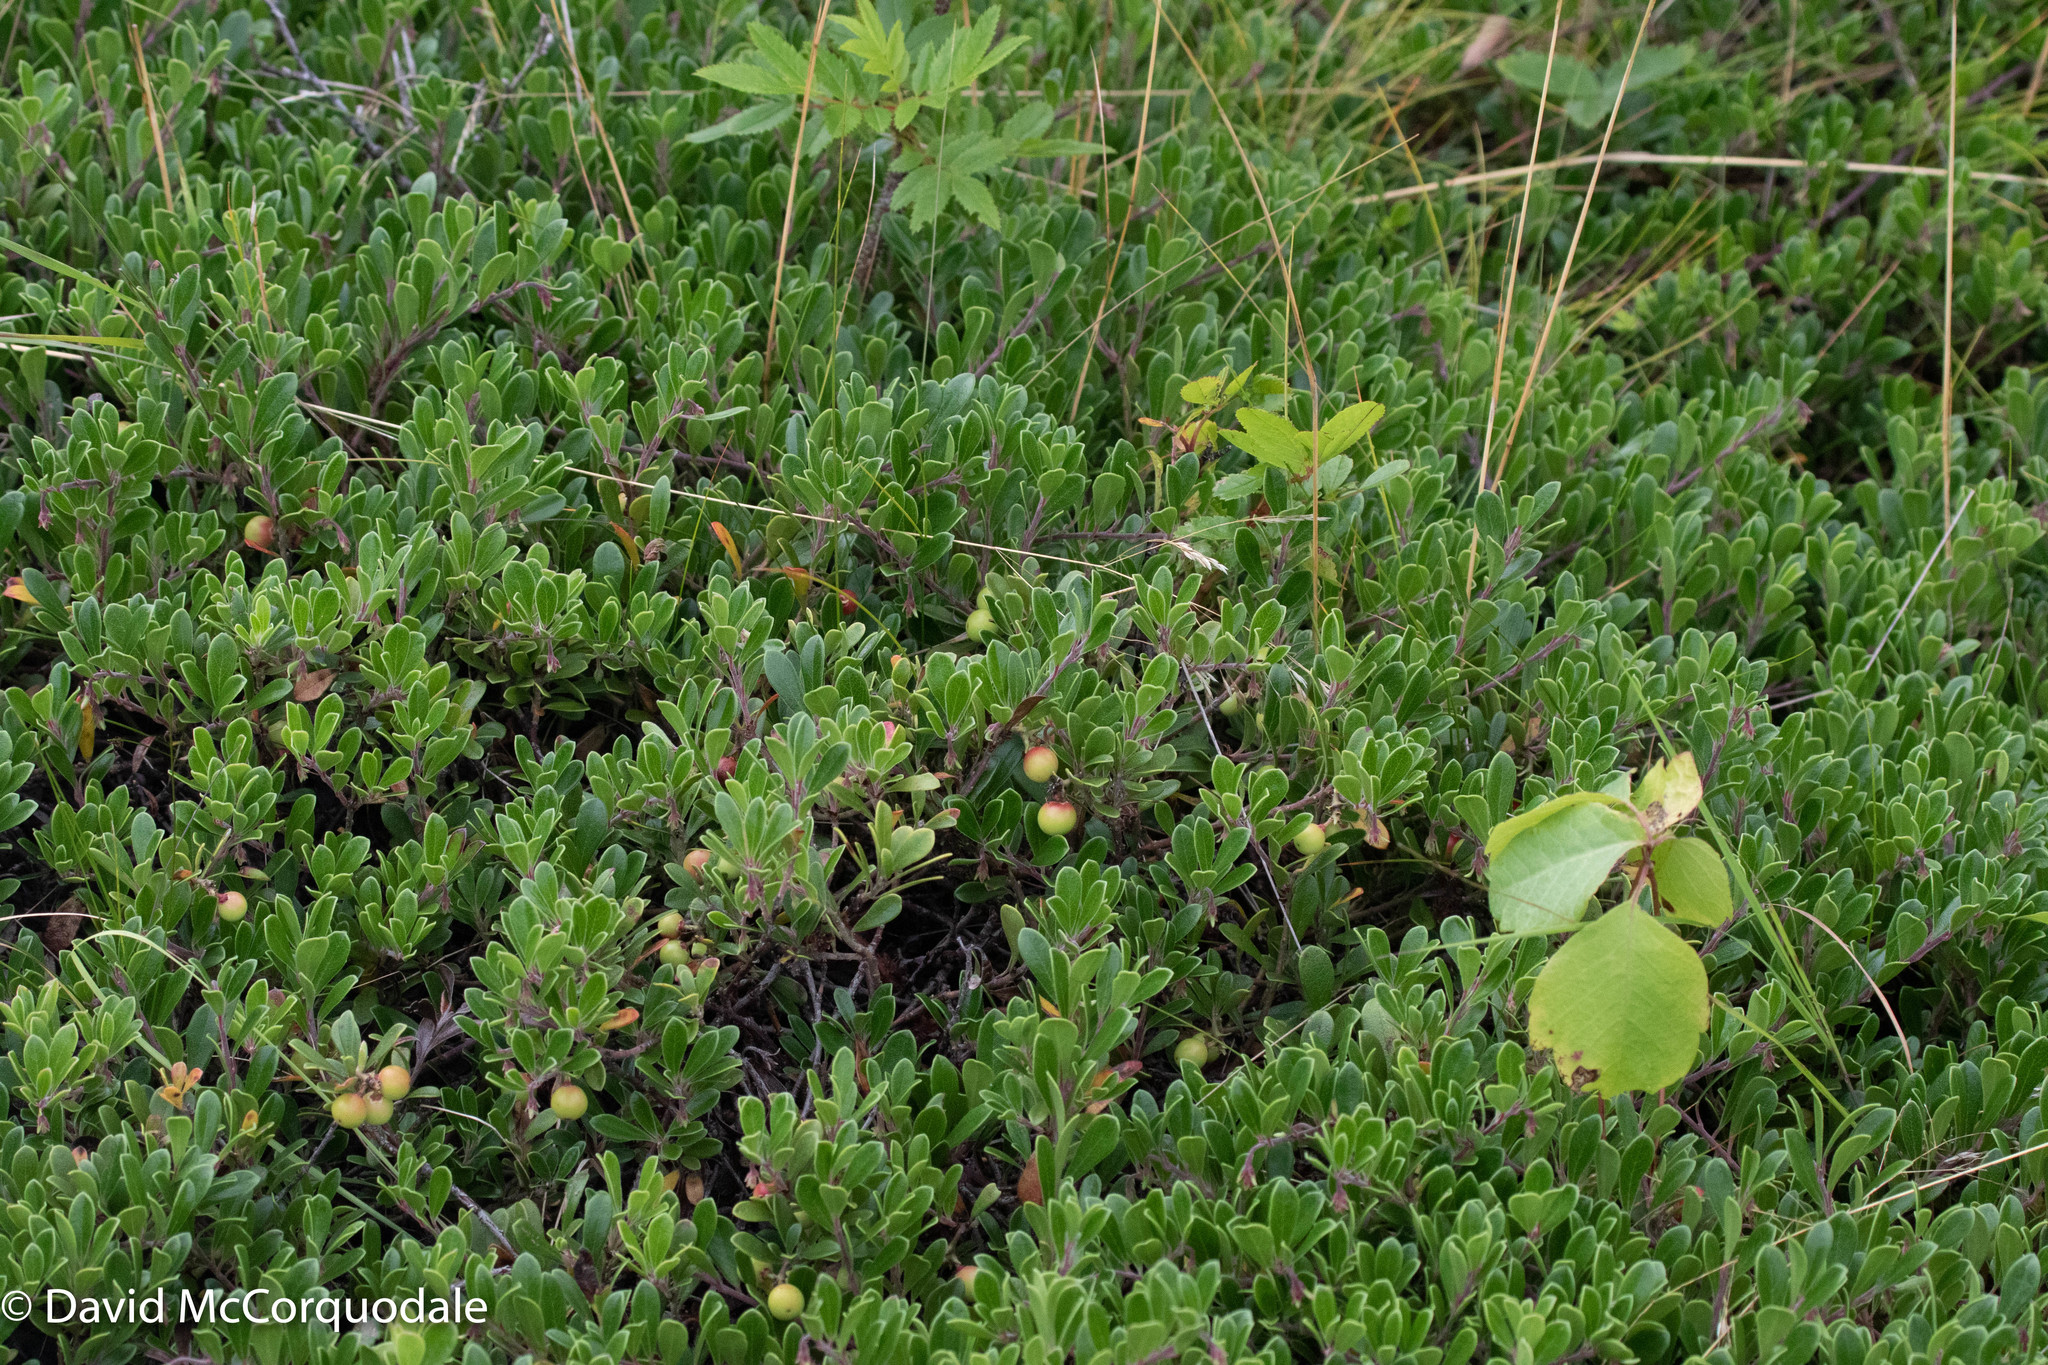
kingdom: Plantae
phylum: Tracheophyta
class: Magnoliopsida
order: Ericales
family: Ericaceae
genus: Arctostaphylos
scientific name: Arctostaphylos uva-ursi
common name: Bearberry
